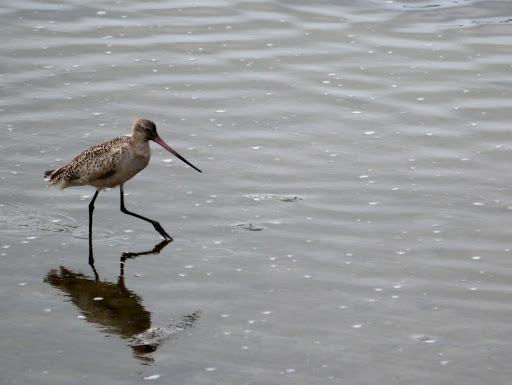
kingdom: Animalia
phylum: Chordata
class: Aves
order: Charadriiformes
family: Scolopacidae
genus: Limosa
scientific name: Limosa fedoa
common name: Marbled godwit
